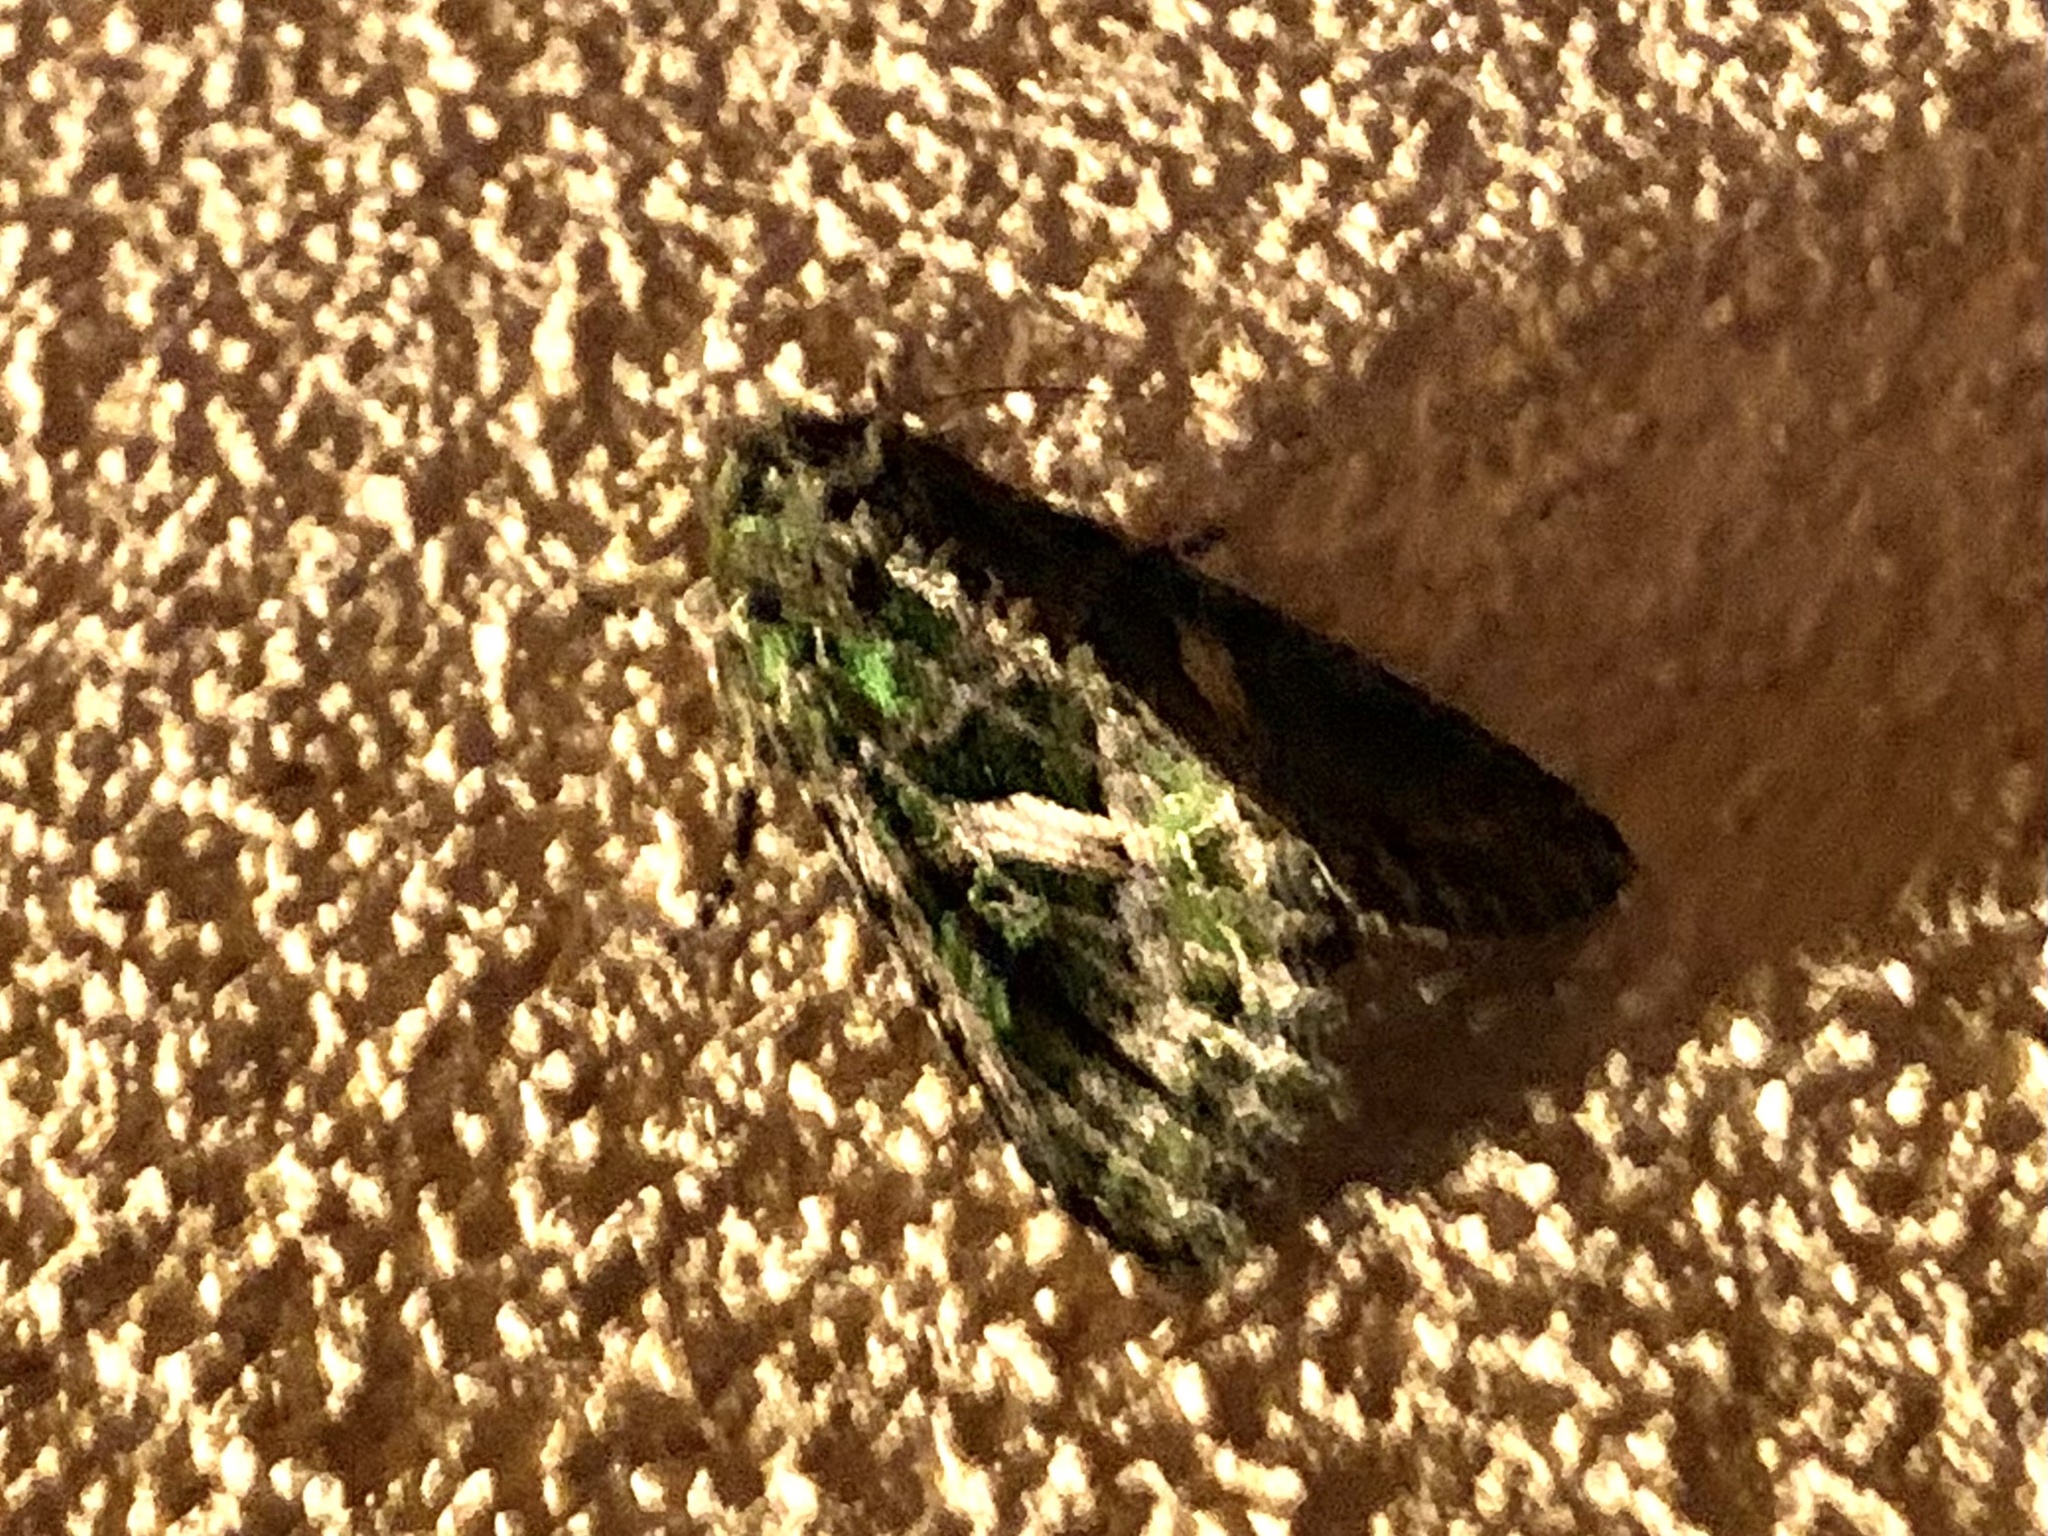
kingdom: Animalia
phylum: Arthropoda
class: Insecta
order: Lepidoptera
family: Noctuidae
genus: Trachea
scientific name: Trachea atriplicis
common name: Orache moth
